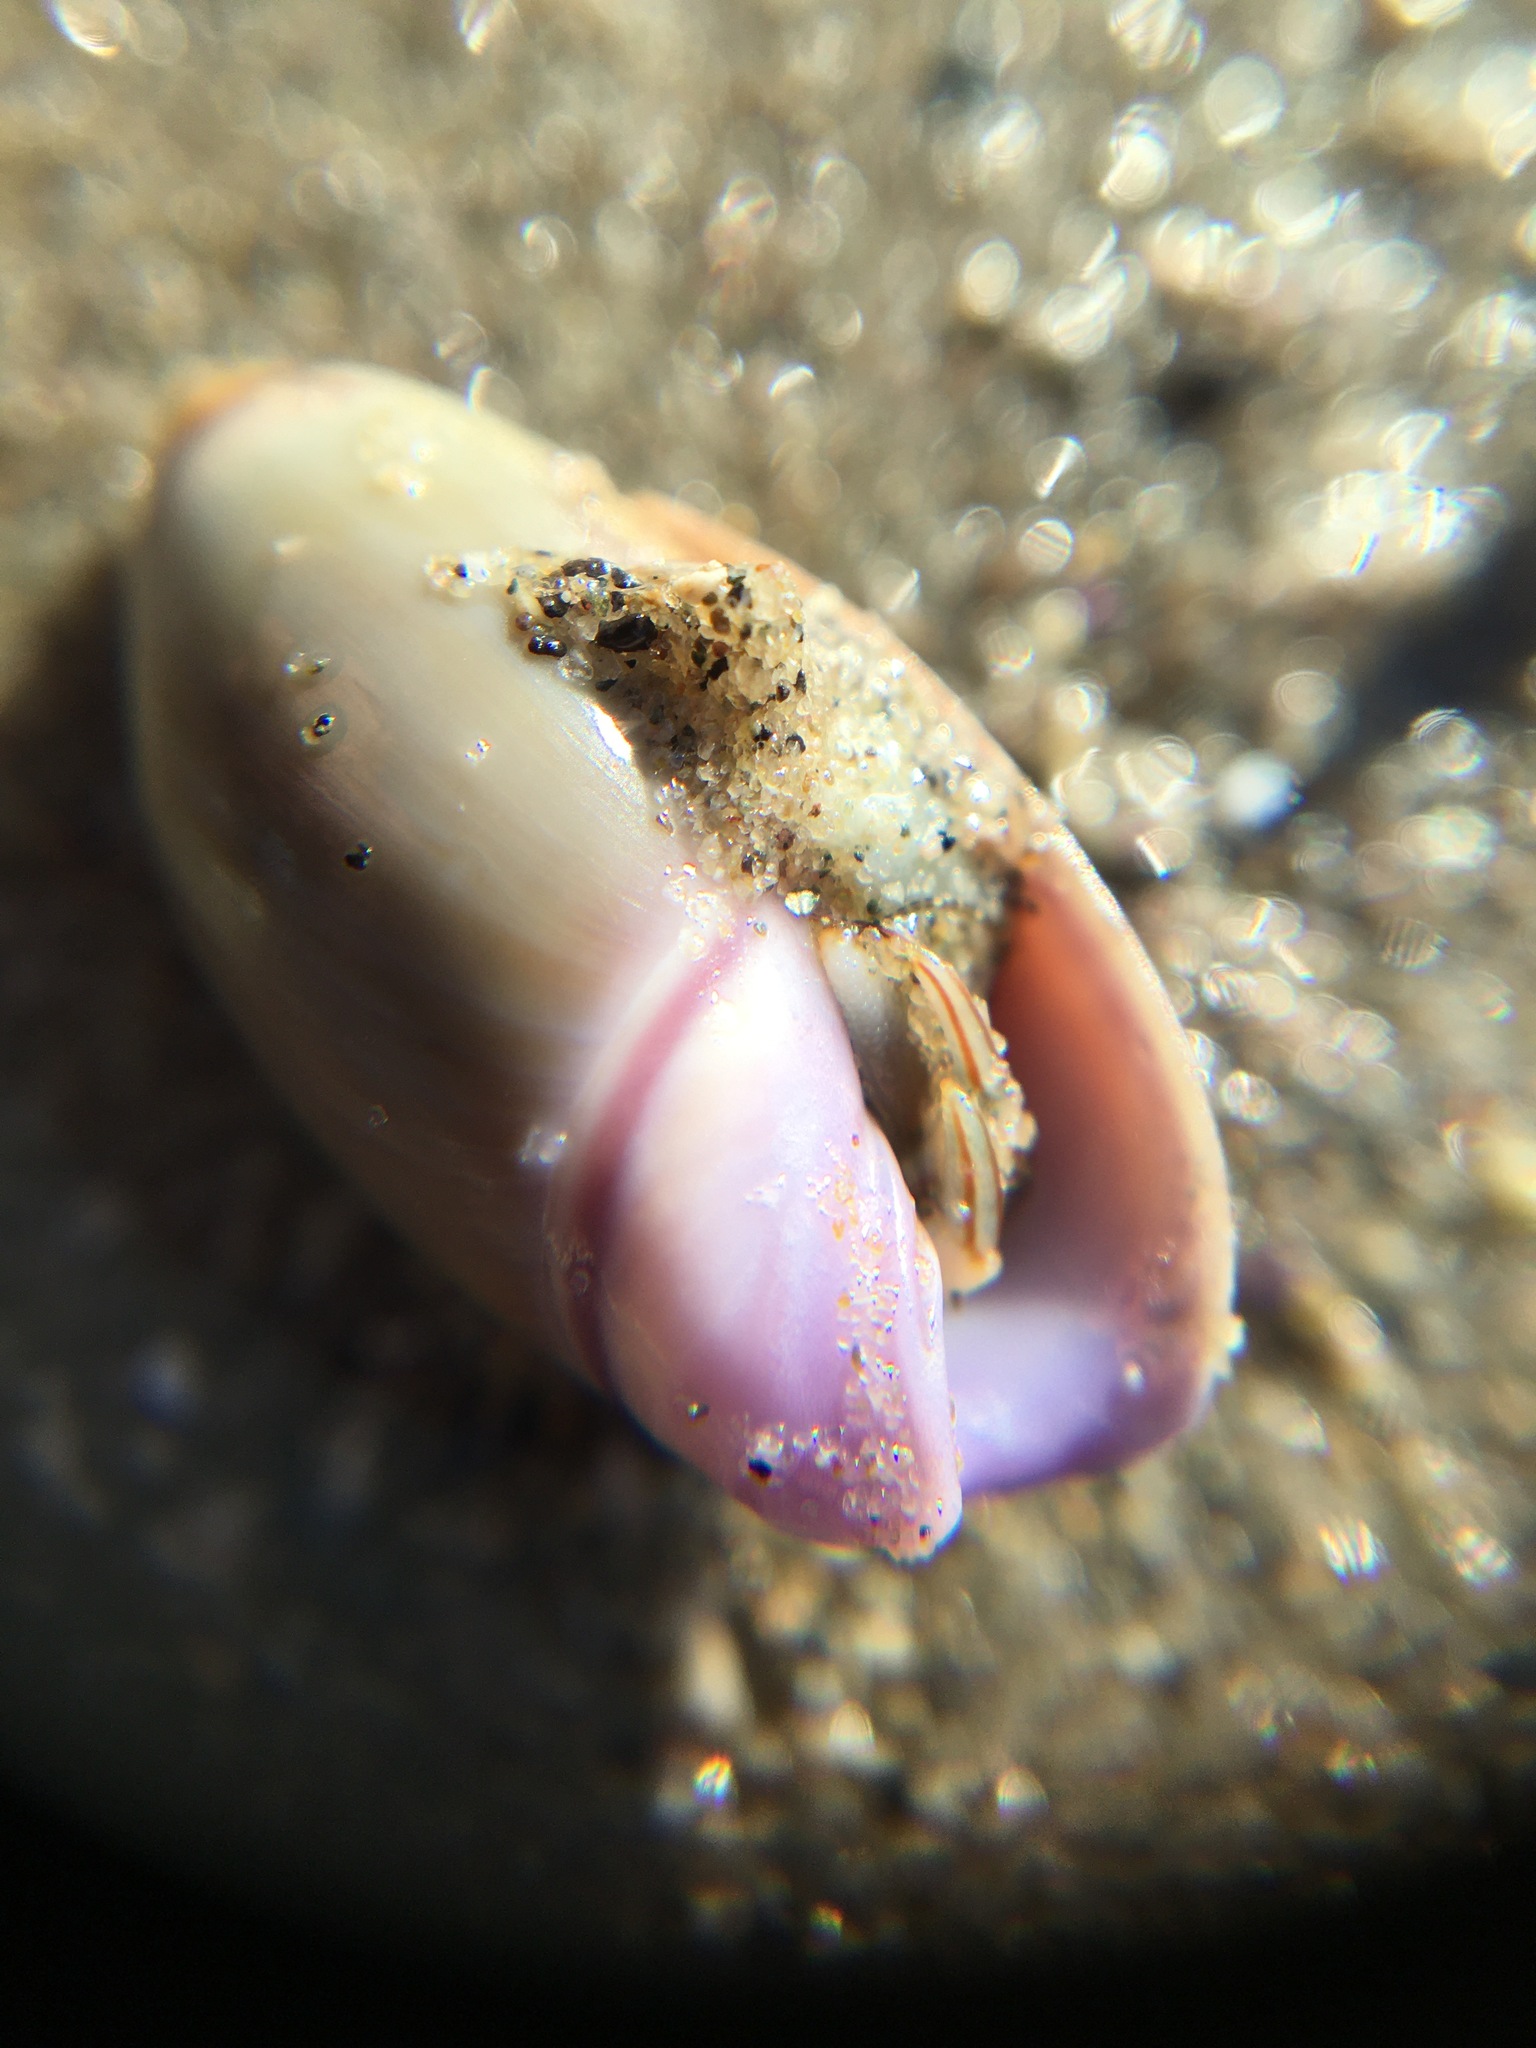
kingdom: Animalia
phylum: Mollusca
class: Gastropoda
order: Neogastropoda
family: Olividae
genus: Callianax
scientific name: Callianax biplicata
